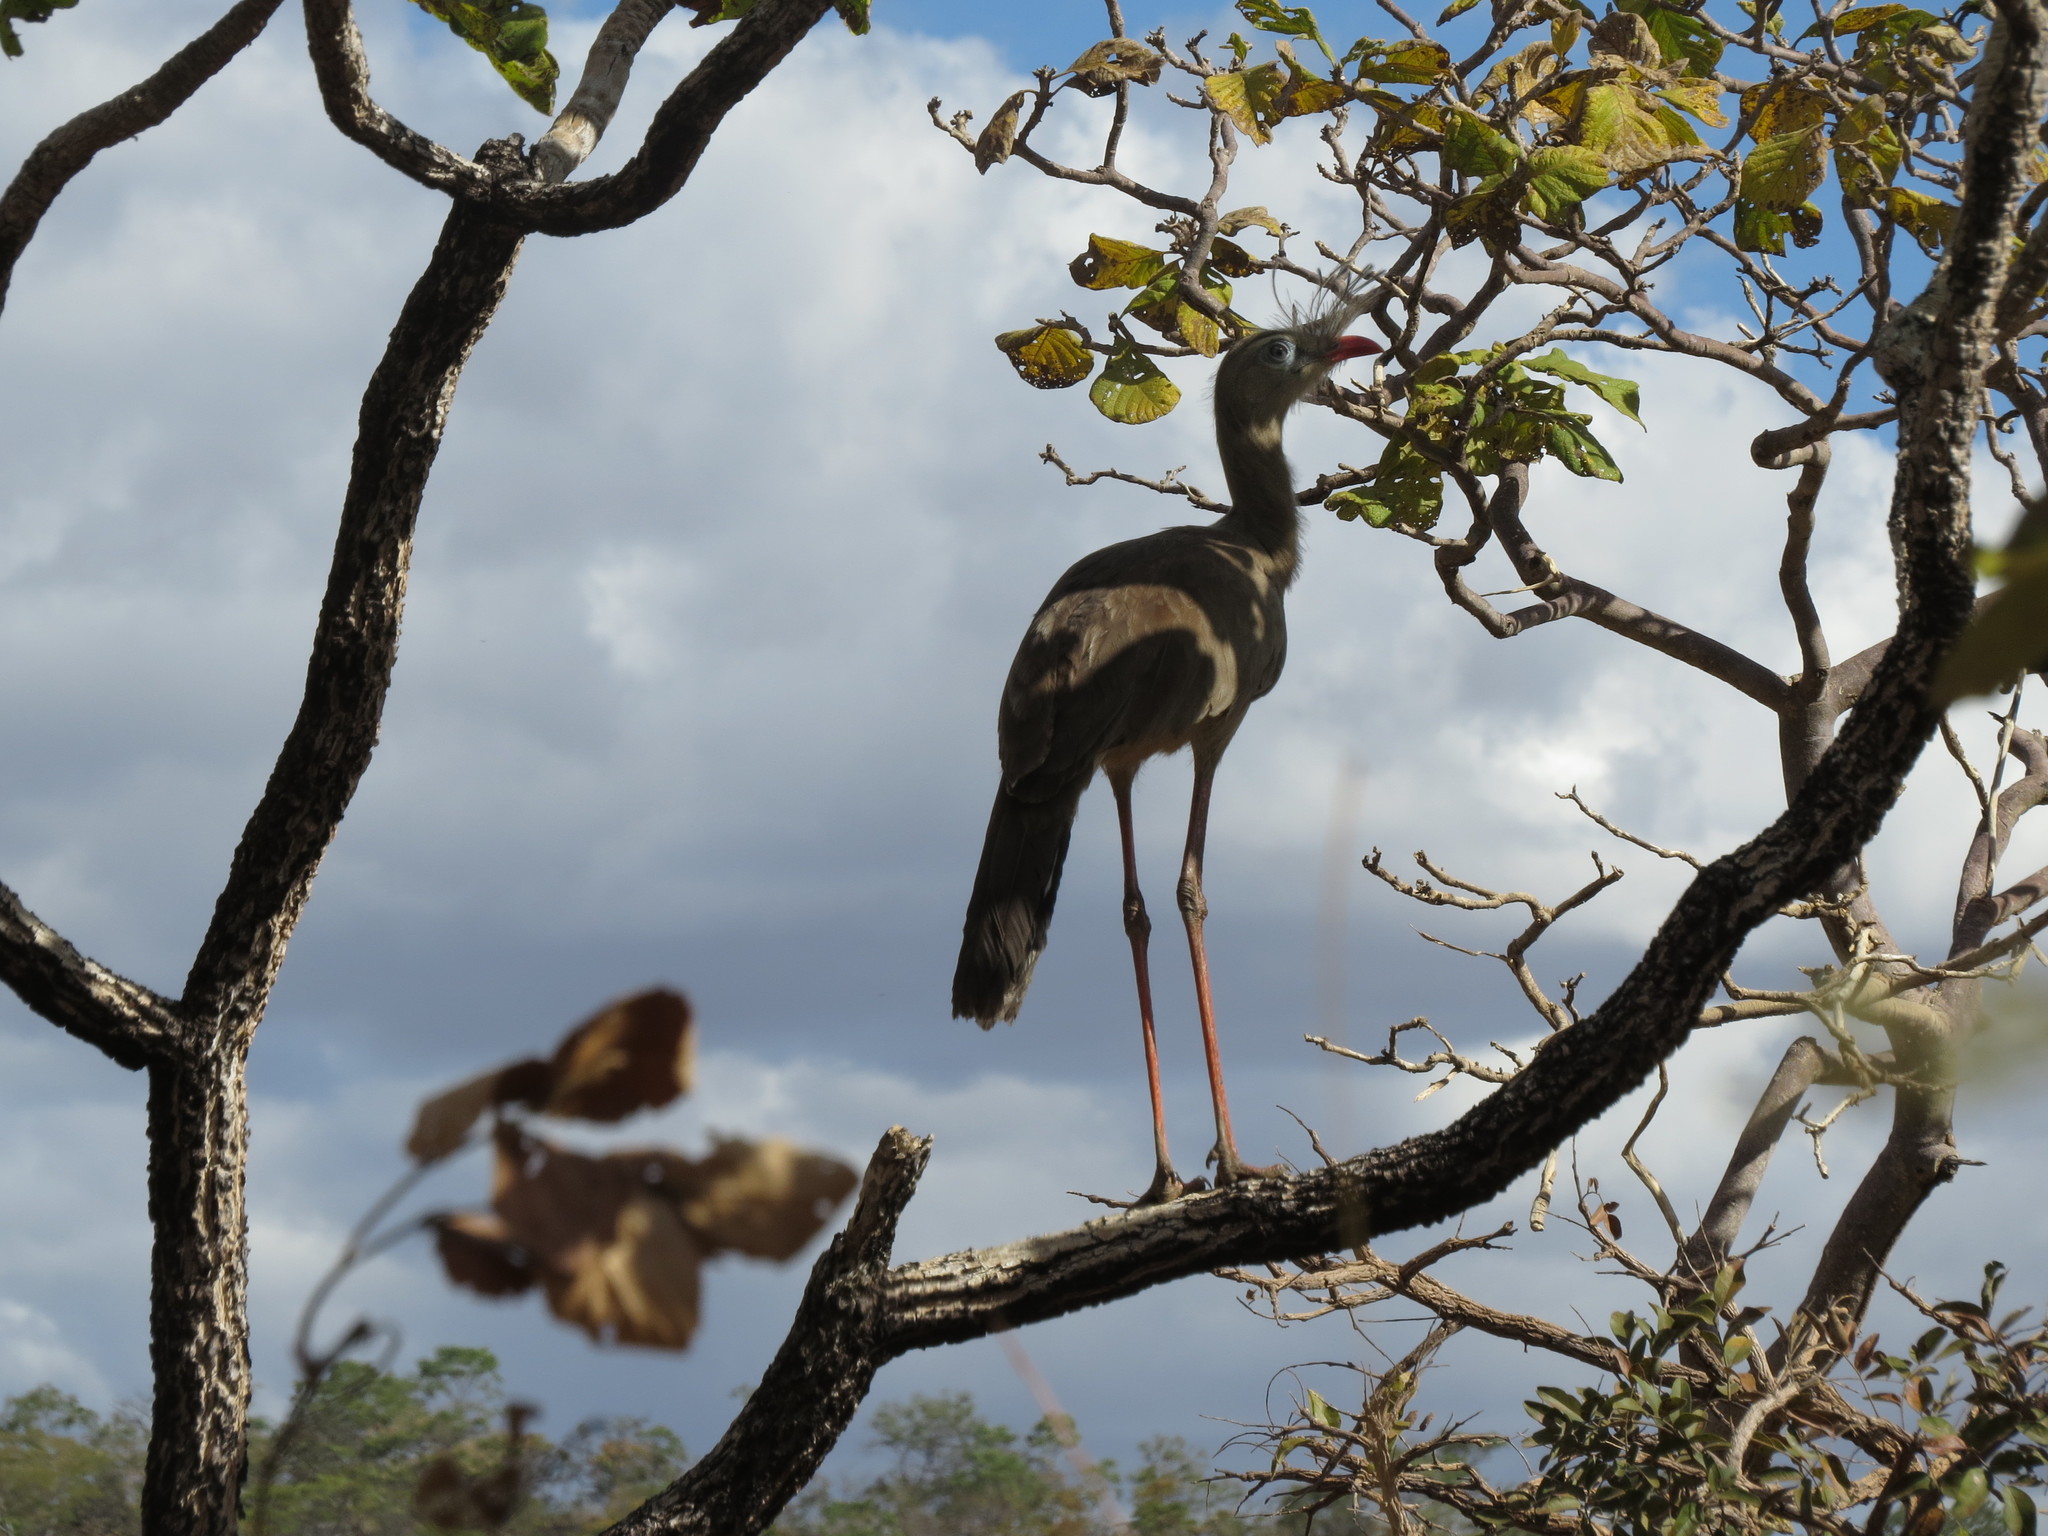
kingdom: Animalia
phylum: Chordata
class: Aves
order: Cariamiformes
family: Cariamidae
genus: Cariama
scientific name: Cariama cristata
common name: Red-legged seriema
